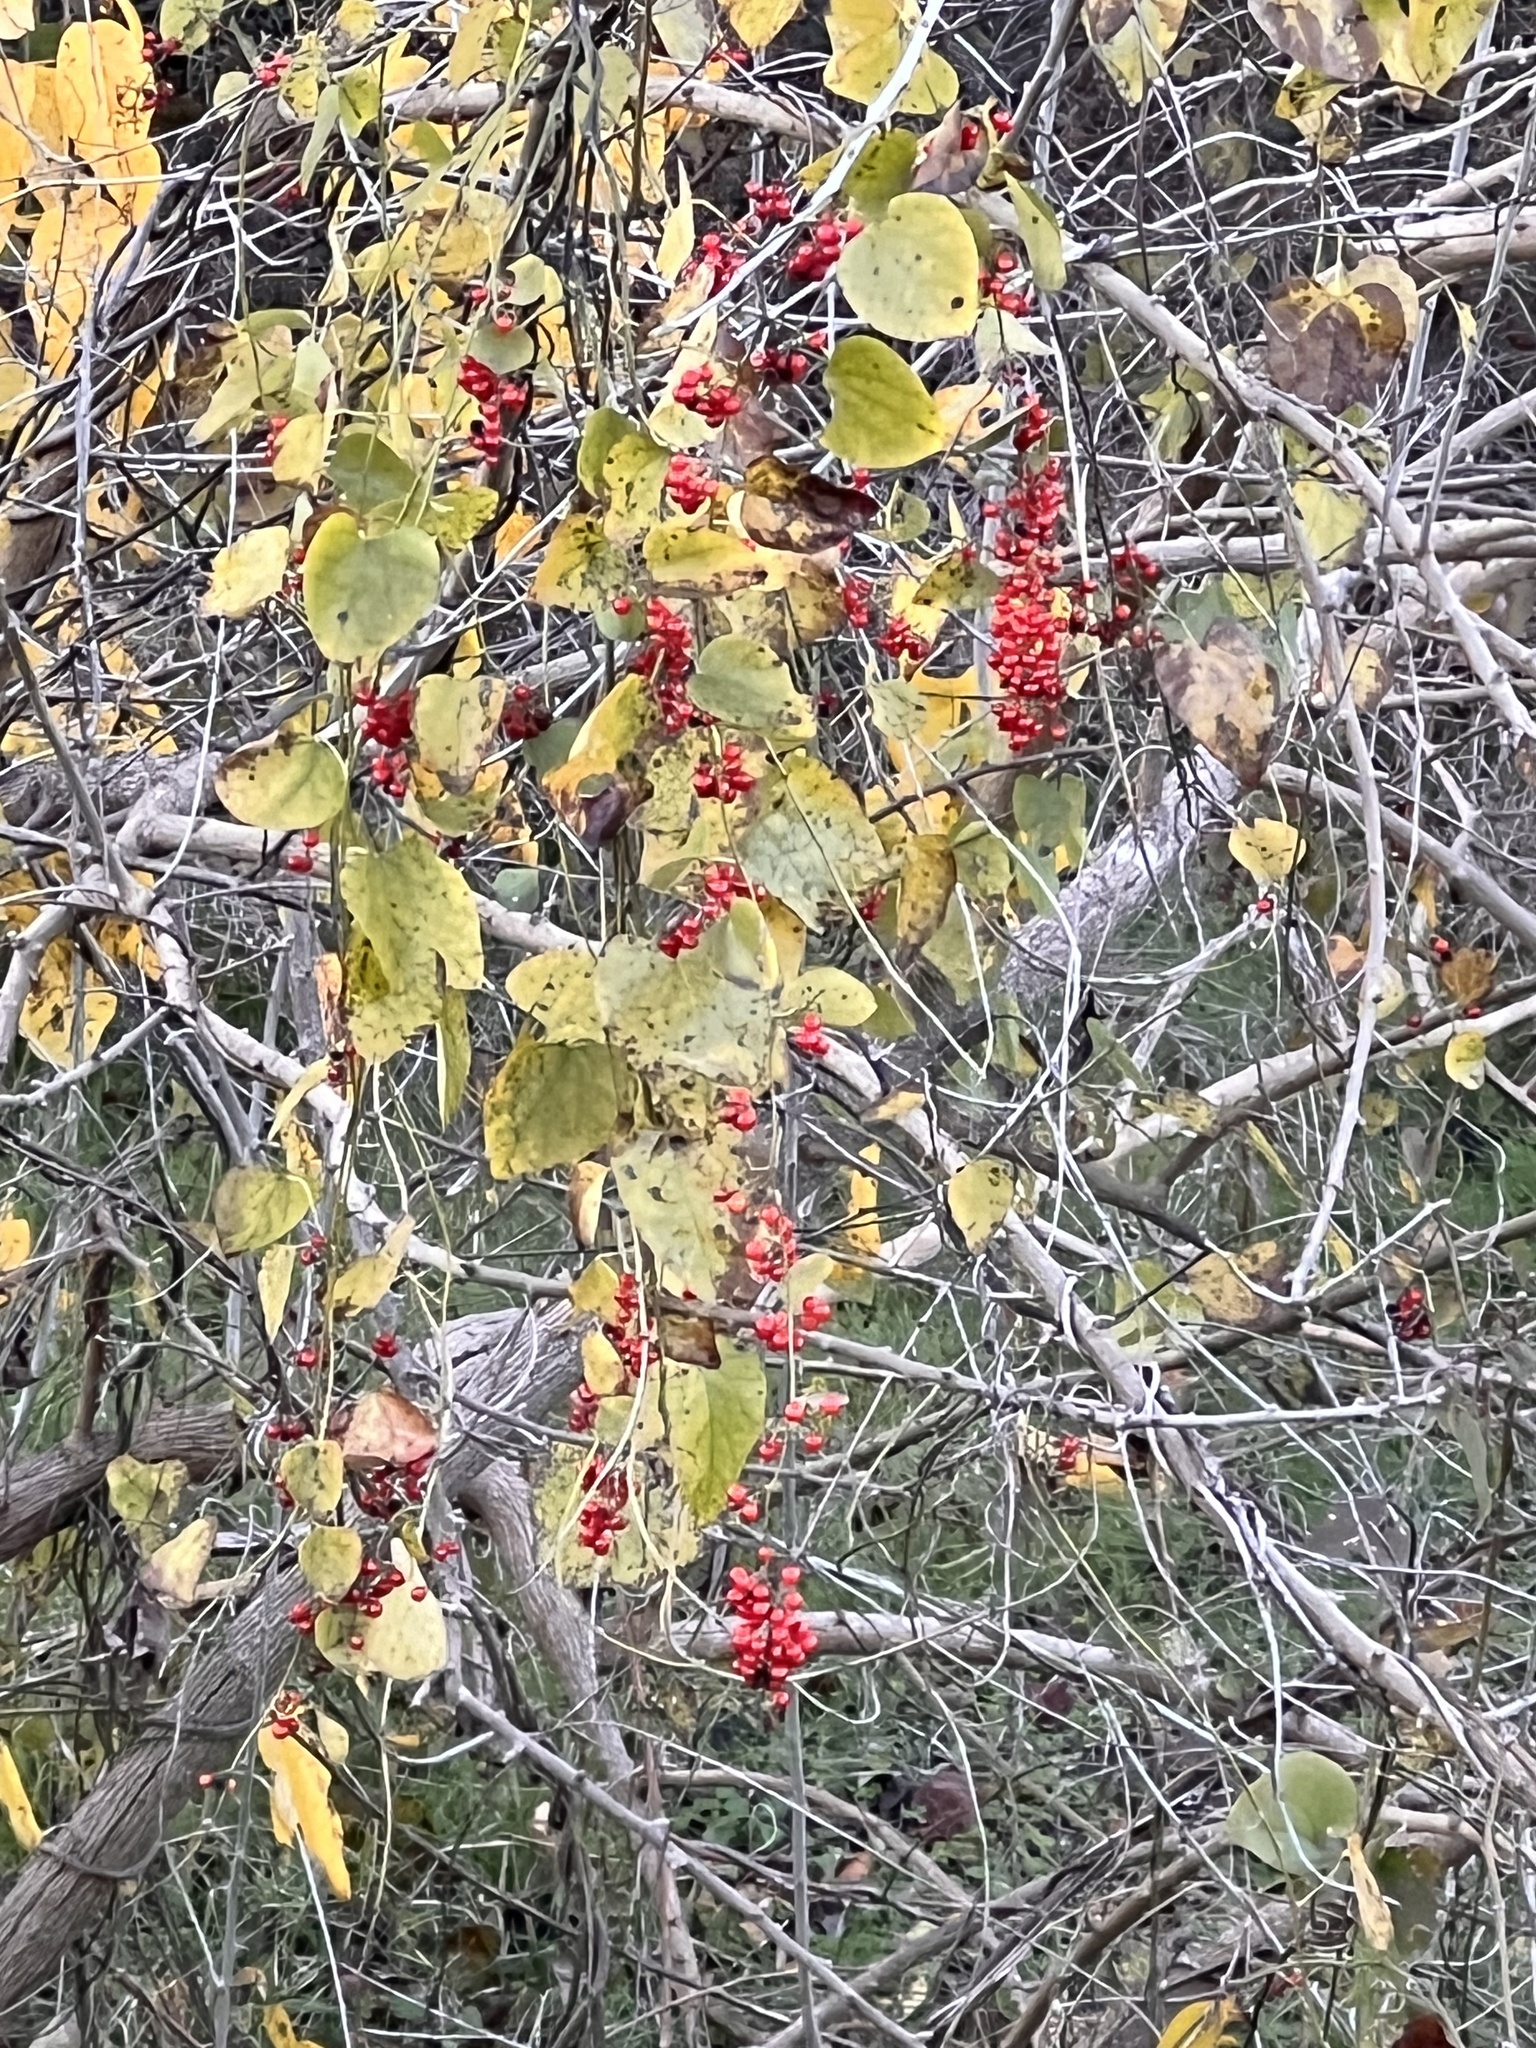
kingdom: Plantae
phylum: Tracheophyta
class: Magnoliopsida
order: Ranunculales
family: Menispermaceae
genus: Cocculus
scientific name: Cocculus carolinus
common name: Carolina moonseed
